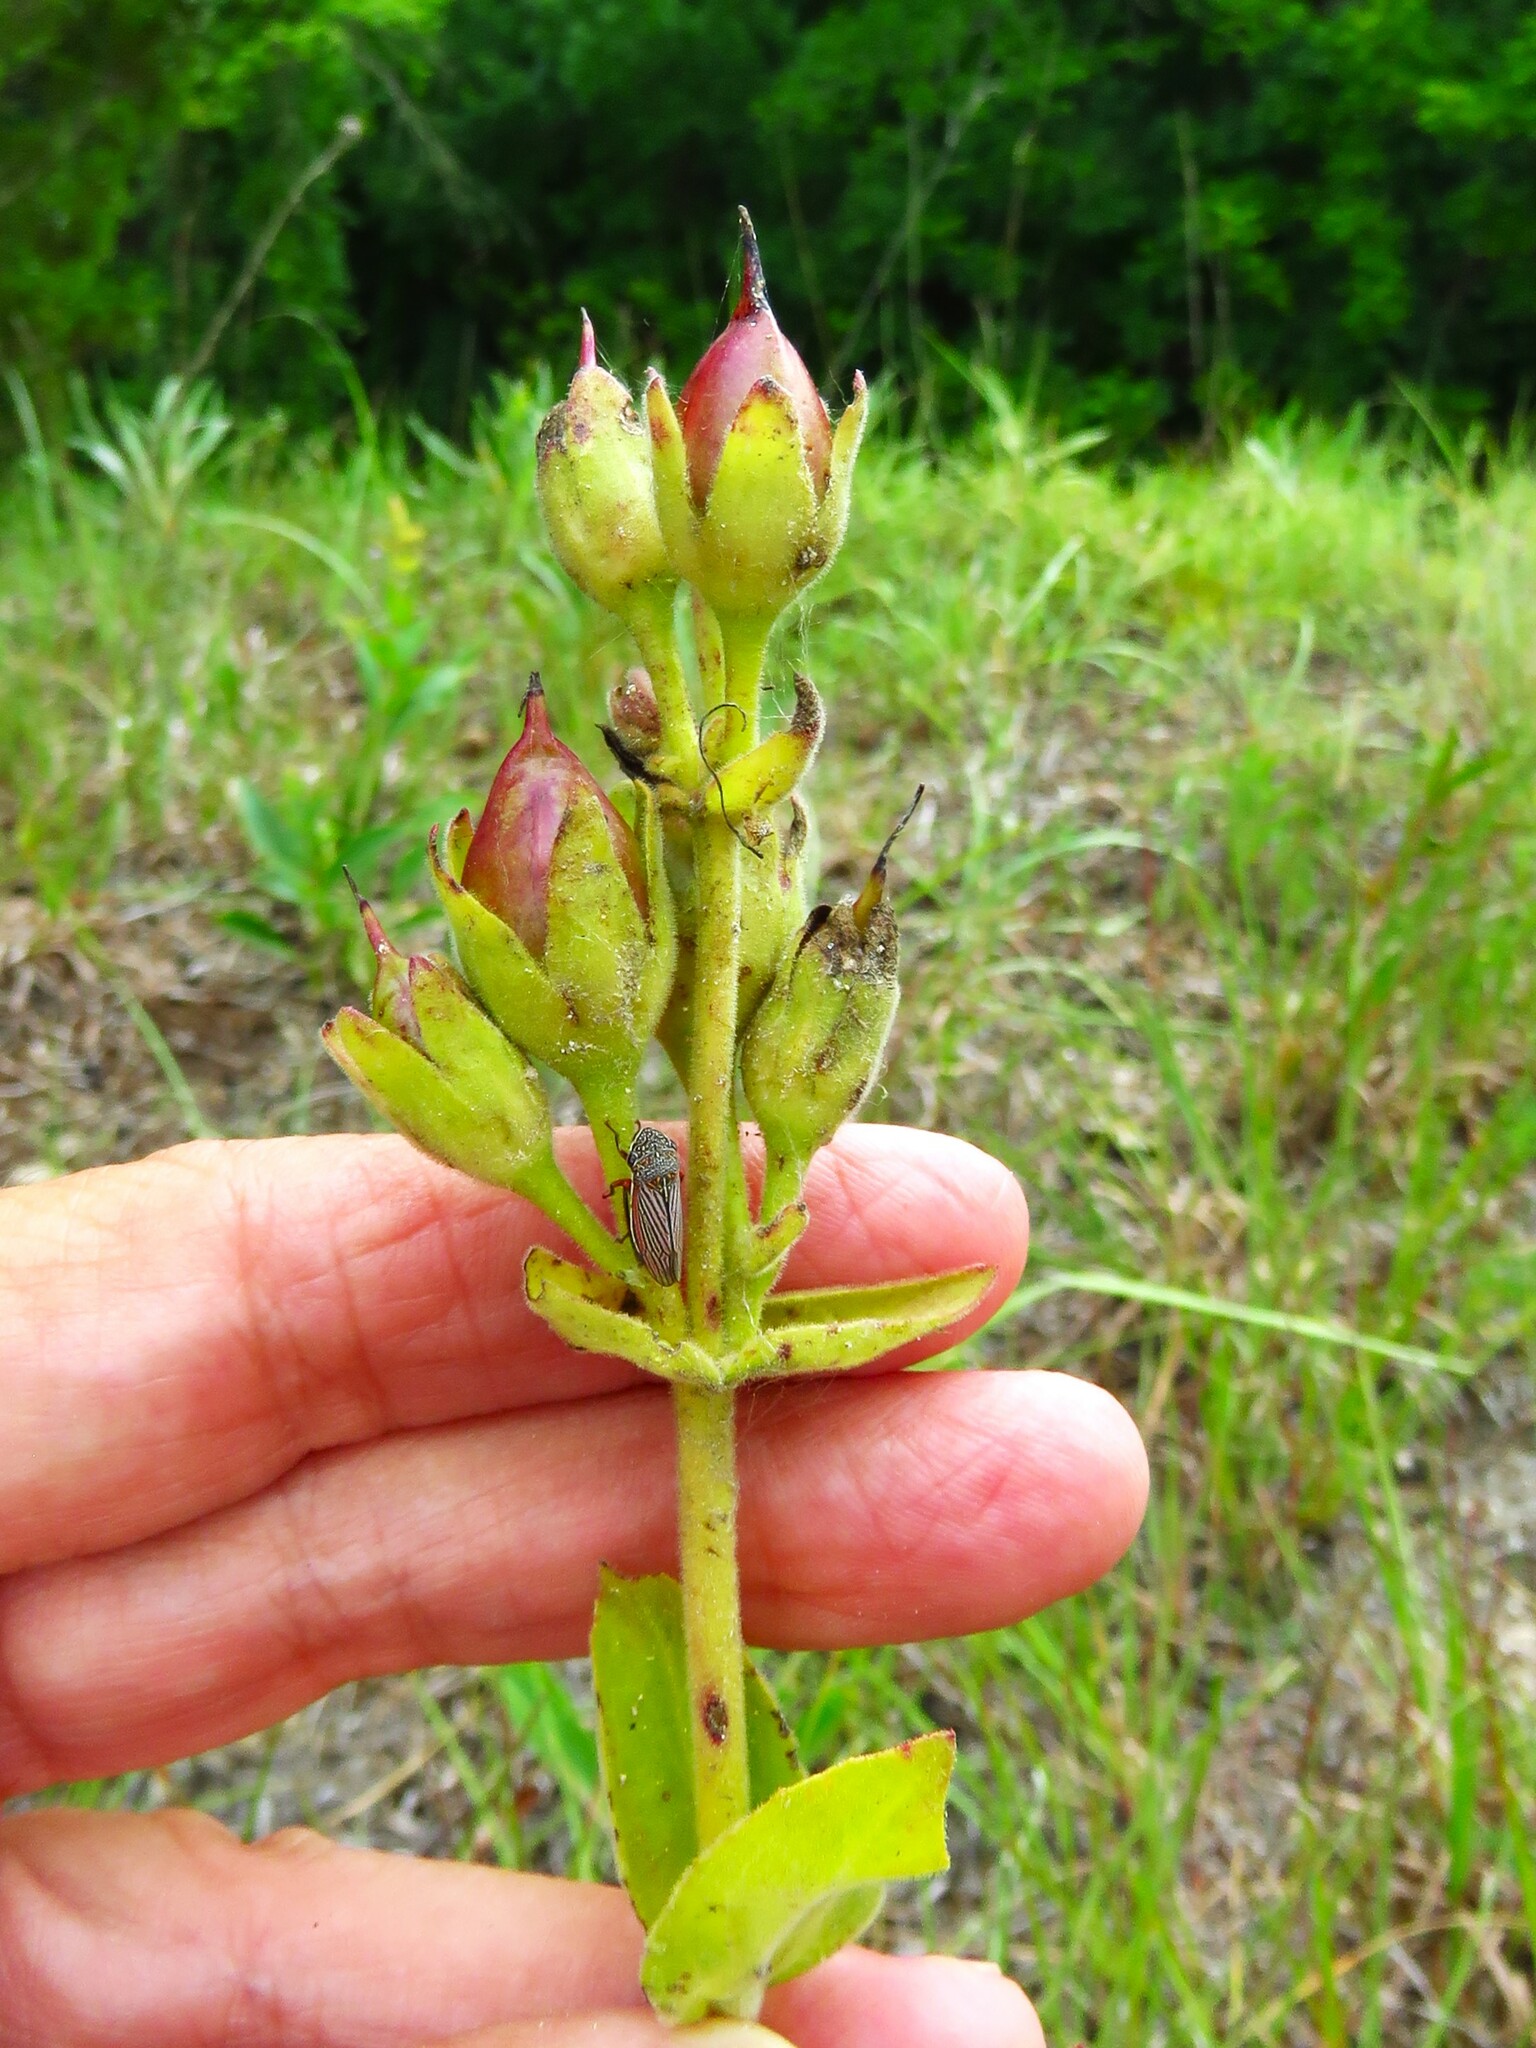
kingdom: Plantae
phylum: Tracheophyta
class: Magnoliopsida
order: Lamiales
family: Plantaginaceae
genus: Penstemon
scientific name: Penstemon cobaea
